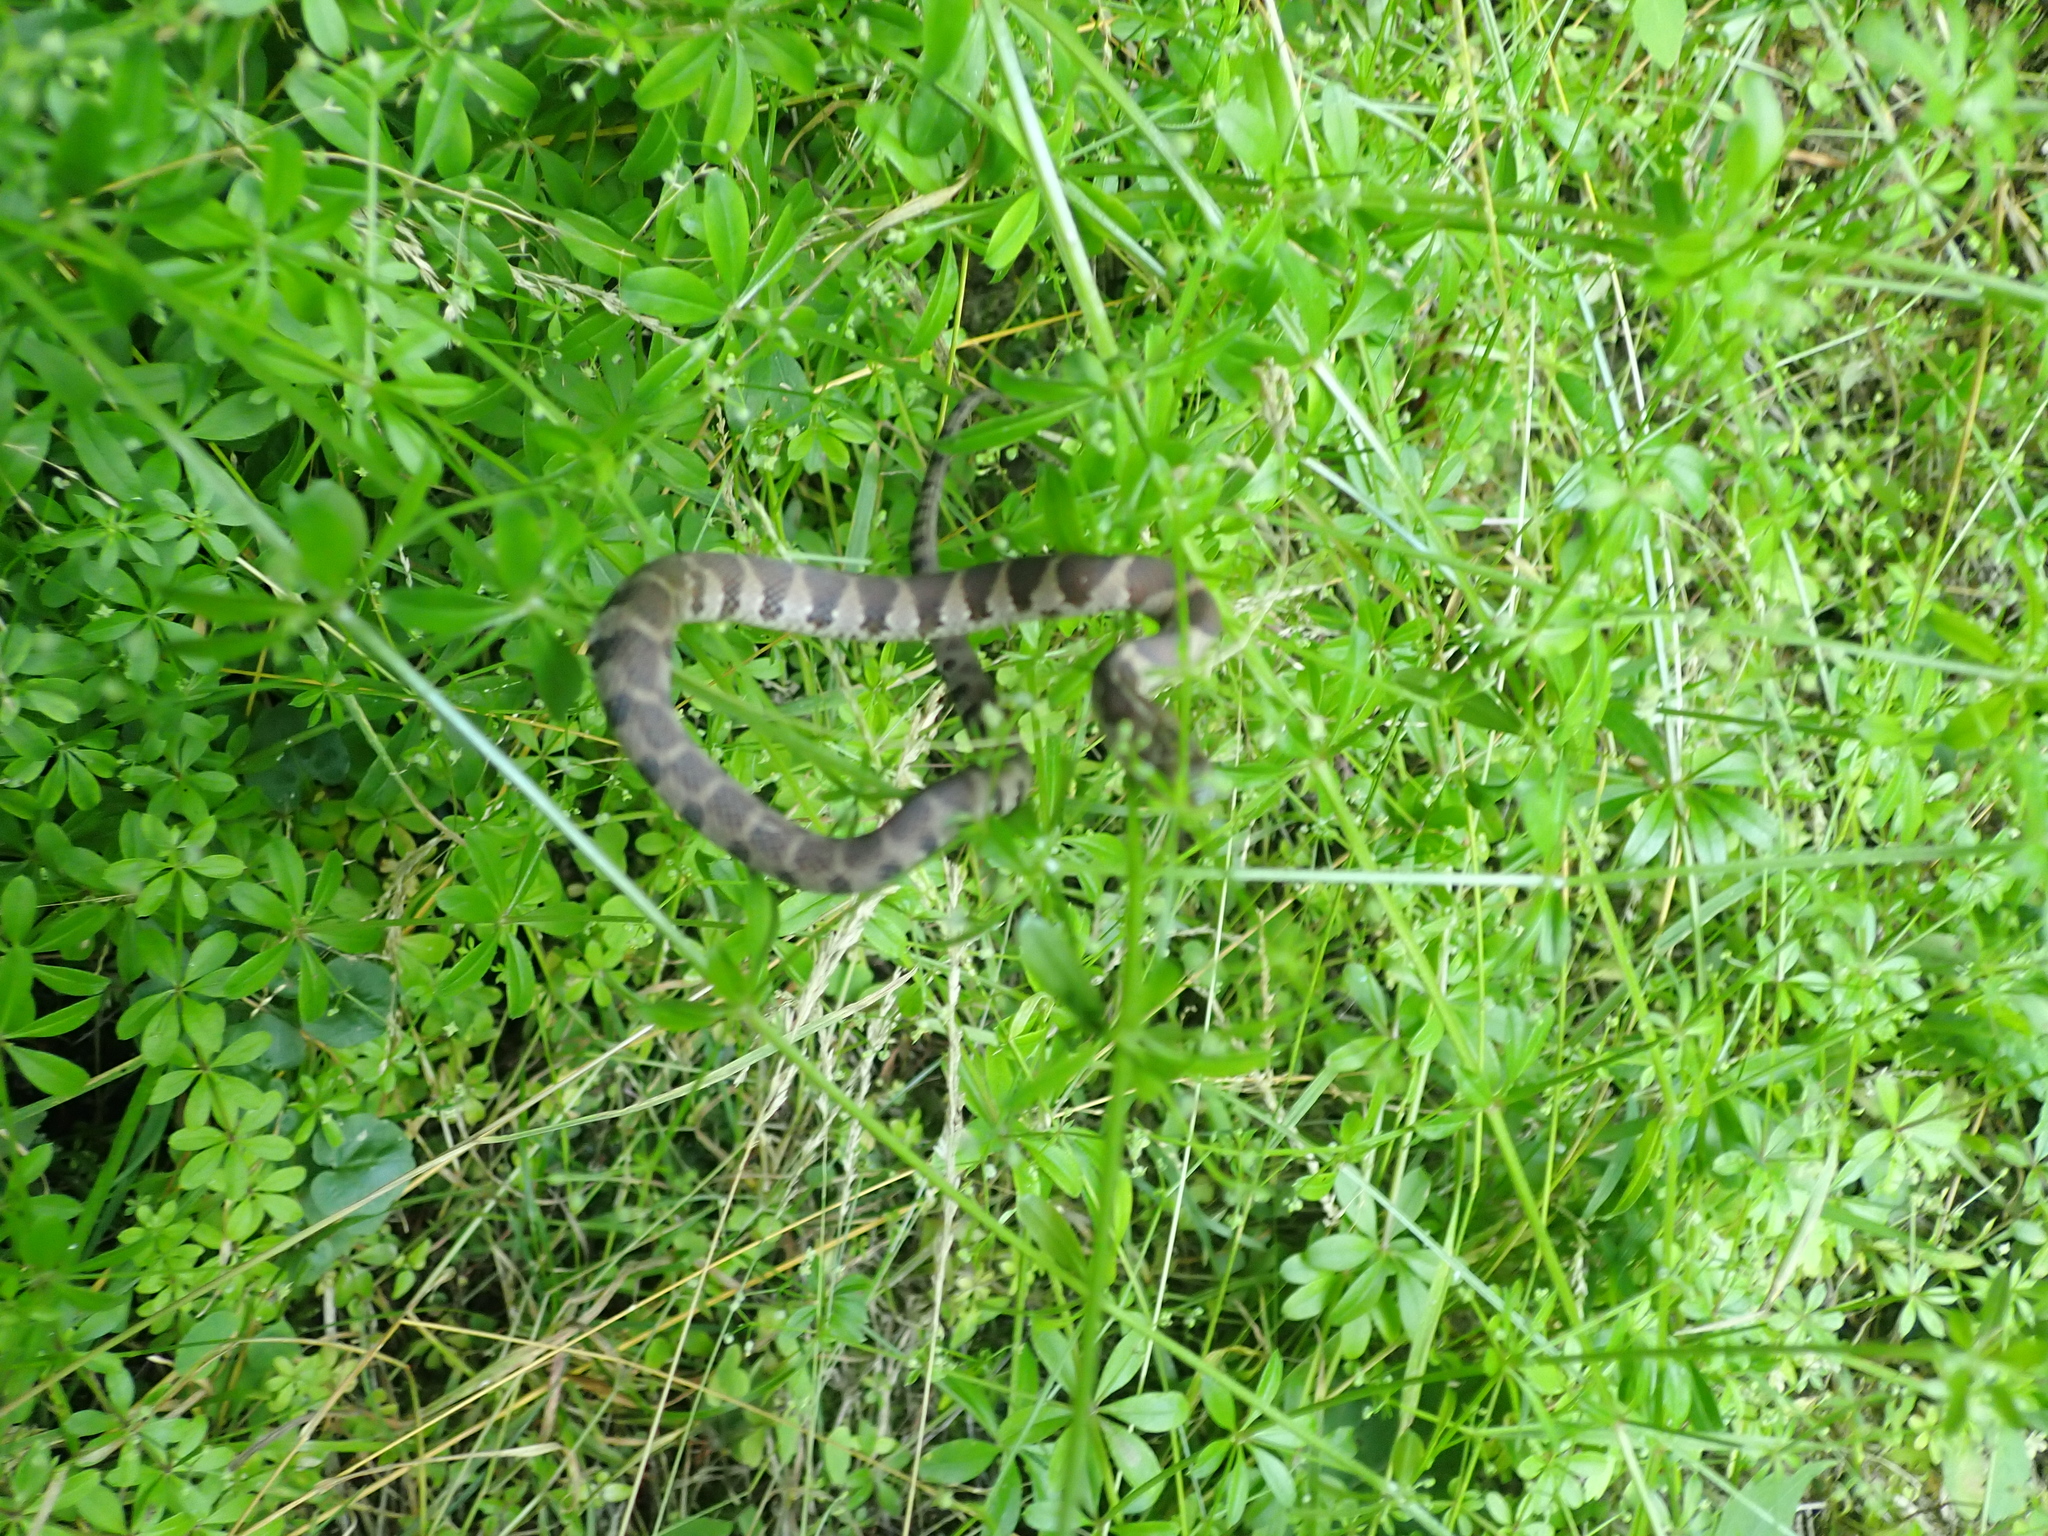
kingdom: Animalia
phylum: Chordata
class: Squamata
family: Colubridae
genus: Nerodia
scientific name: Nerodia sipedon
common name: Northern water snake
